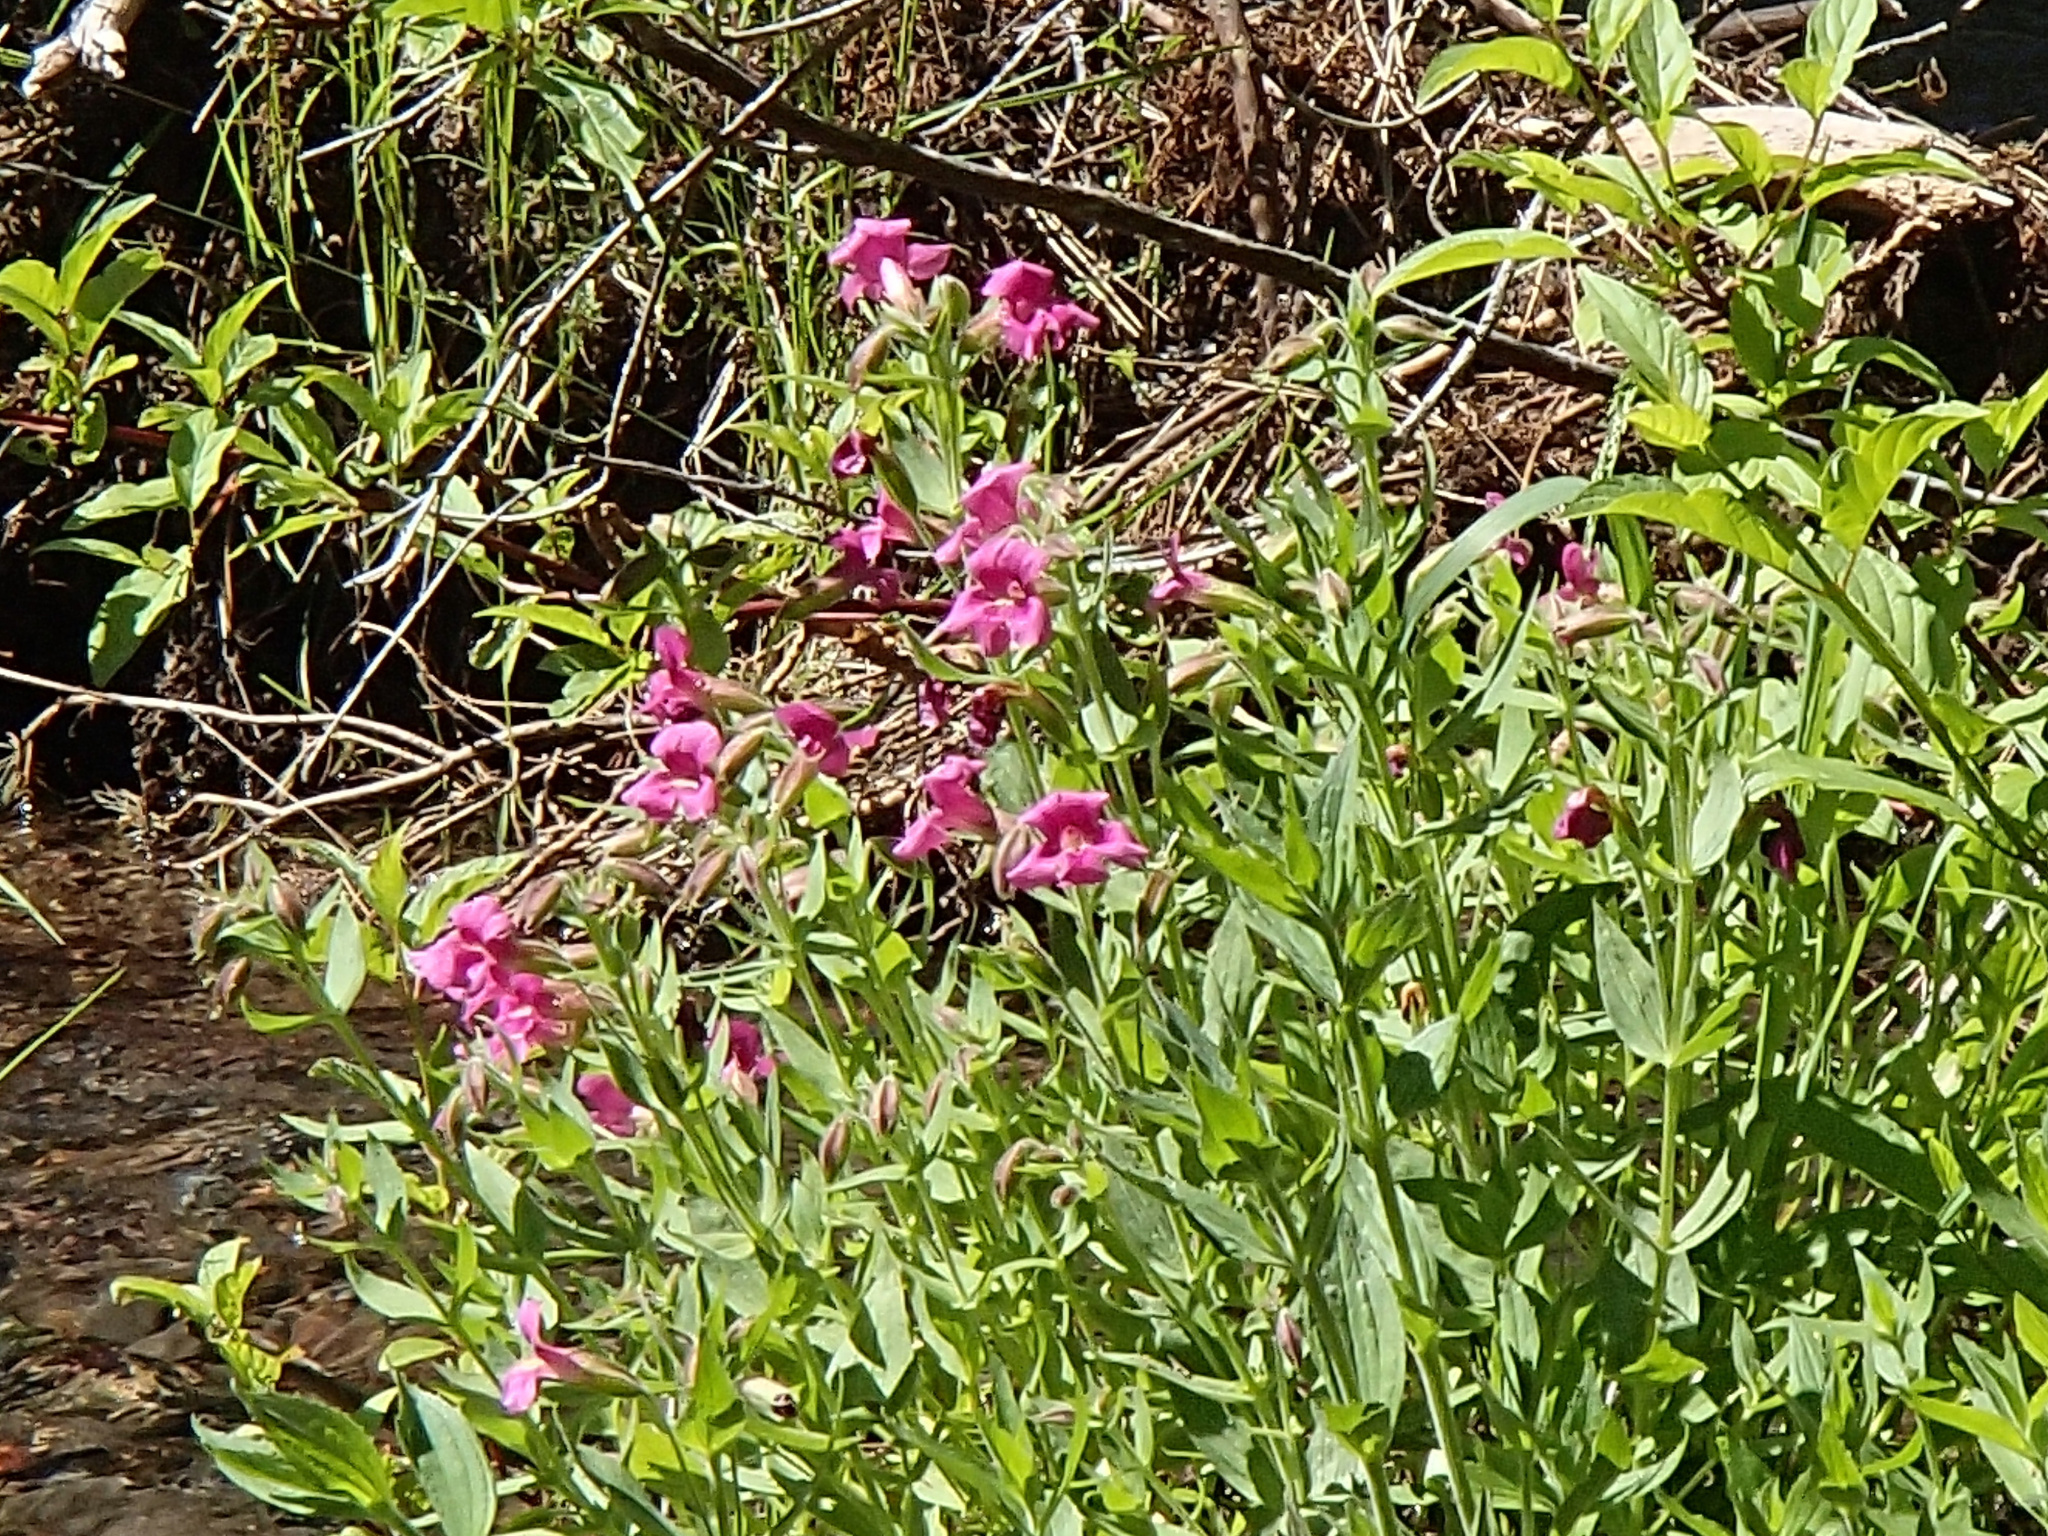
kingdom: Plantae
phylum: Tracheophyta
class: Magnoliopsida
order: Lamiales
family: Phrymaceae
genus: Erythranthe
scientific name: Erythranthe lewisii
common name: Lewis's monkey-flower
